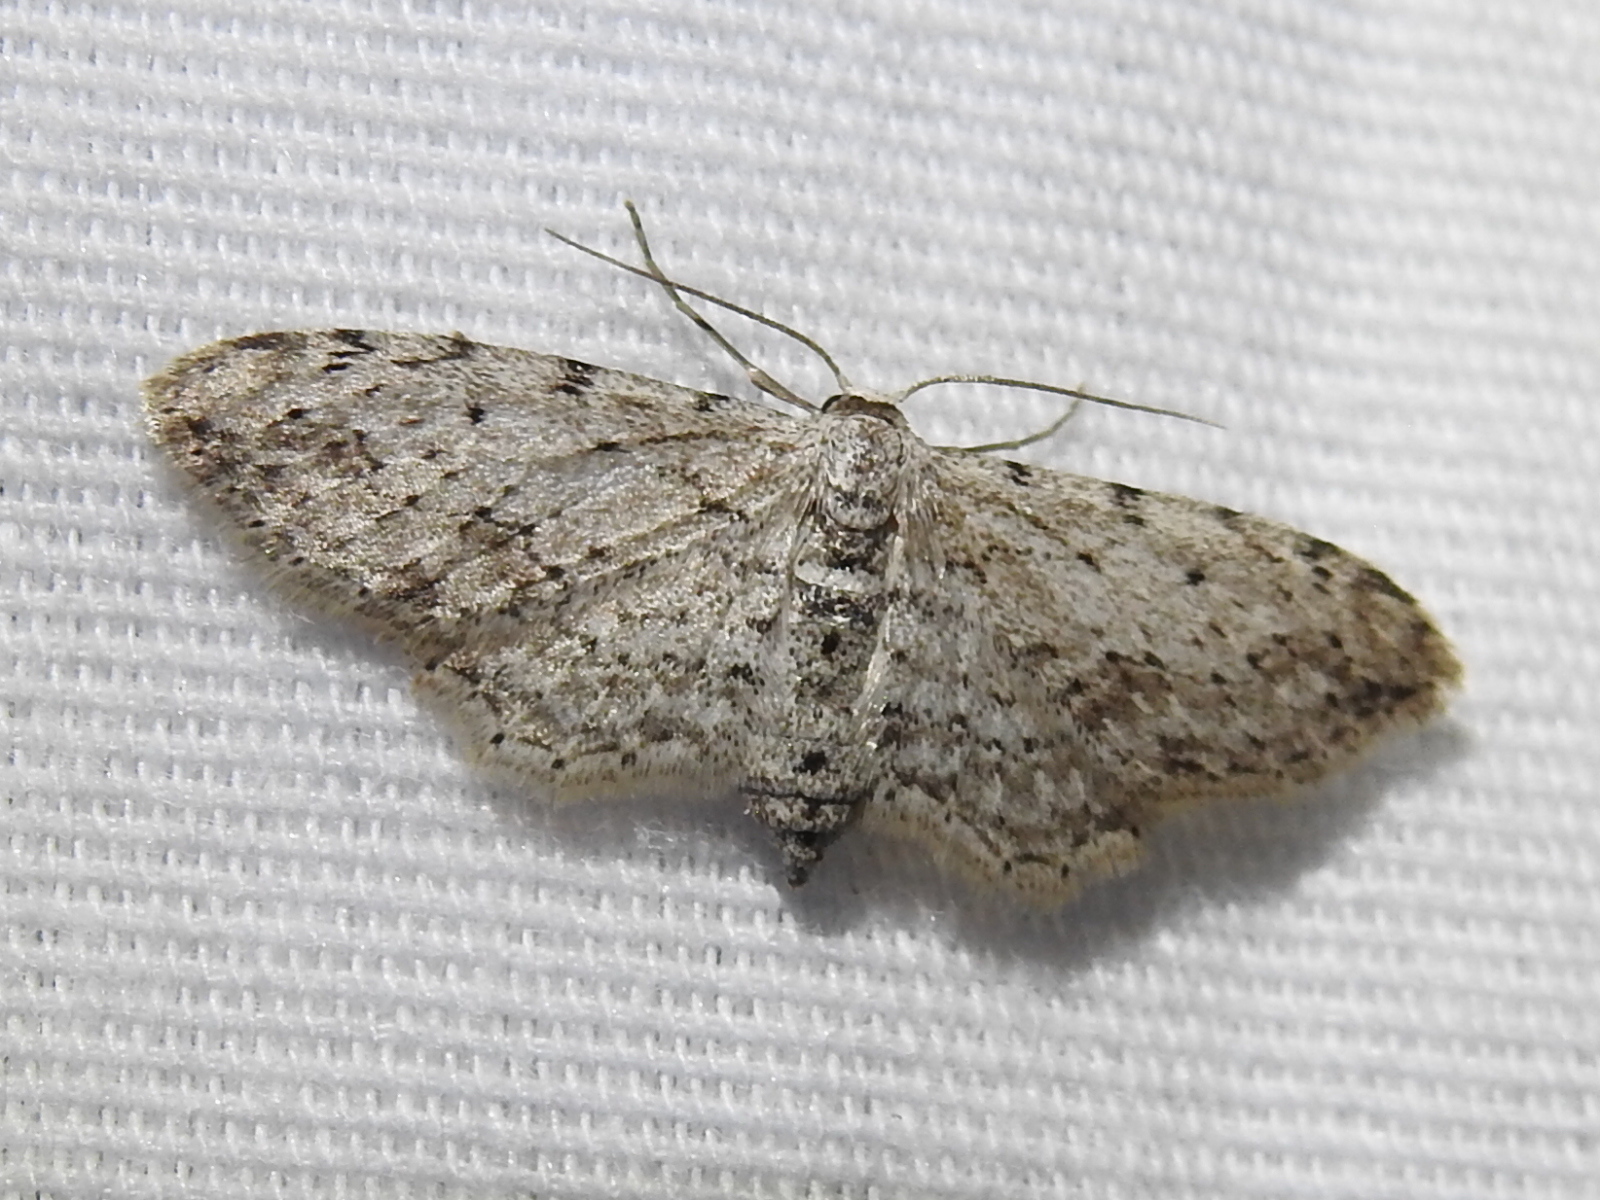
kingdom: Animalia
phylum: Arthropoda
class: Insecta
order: Lepidoptera
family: Geometridae
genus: Pimaphera
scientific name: Pimaphera sparsaria
